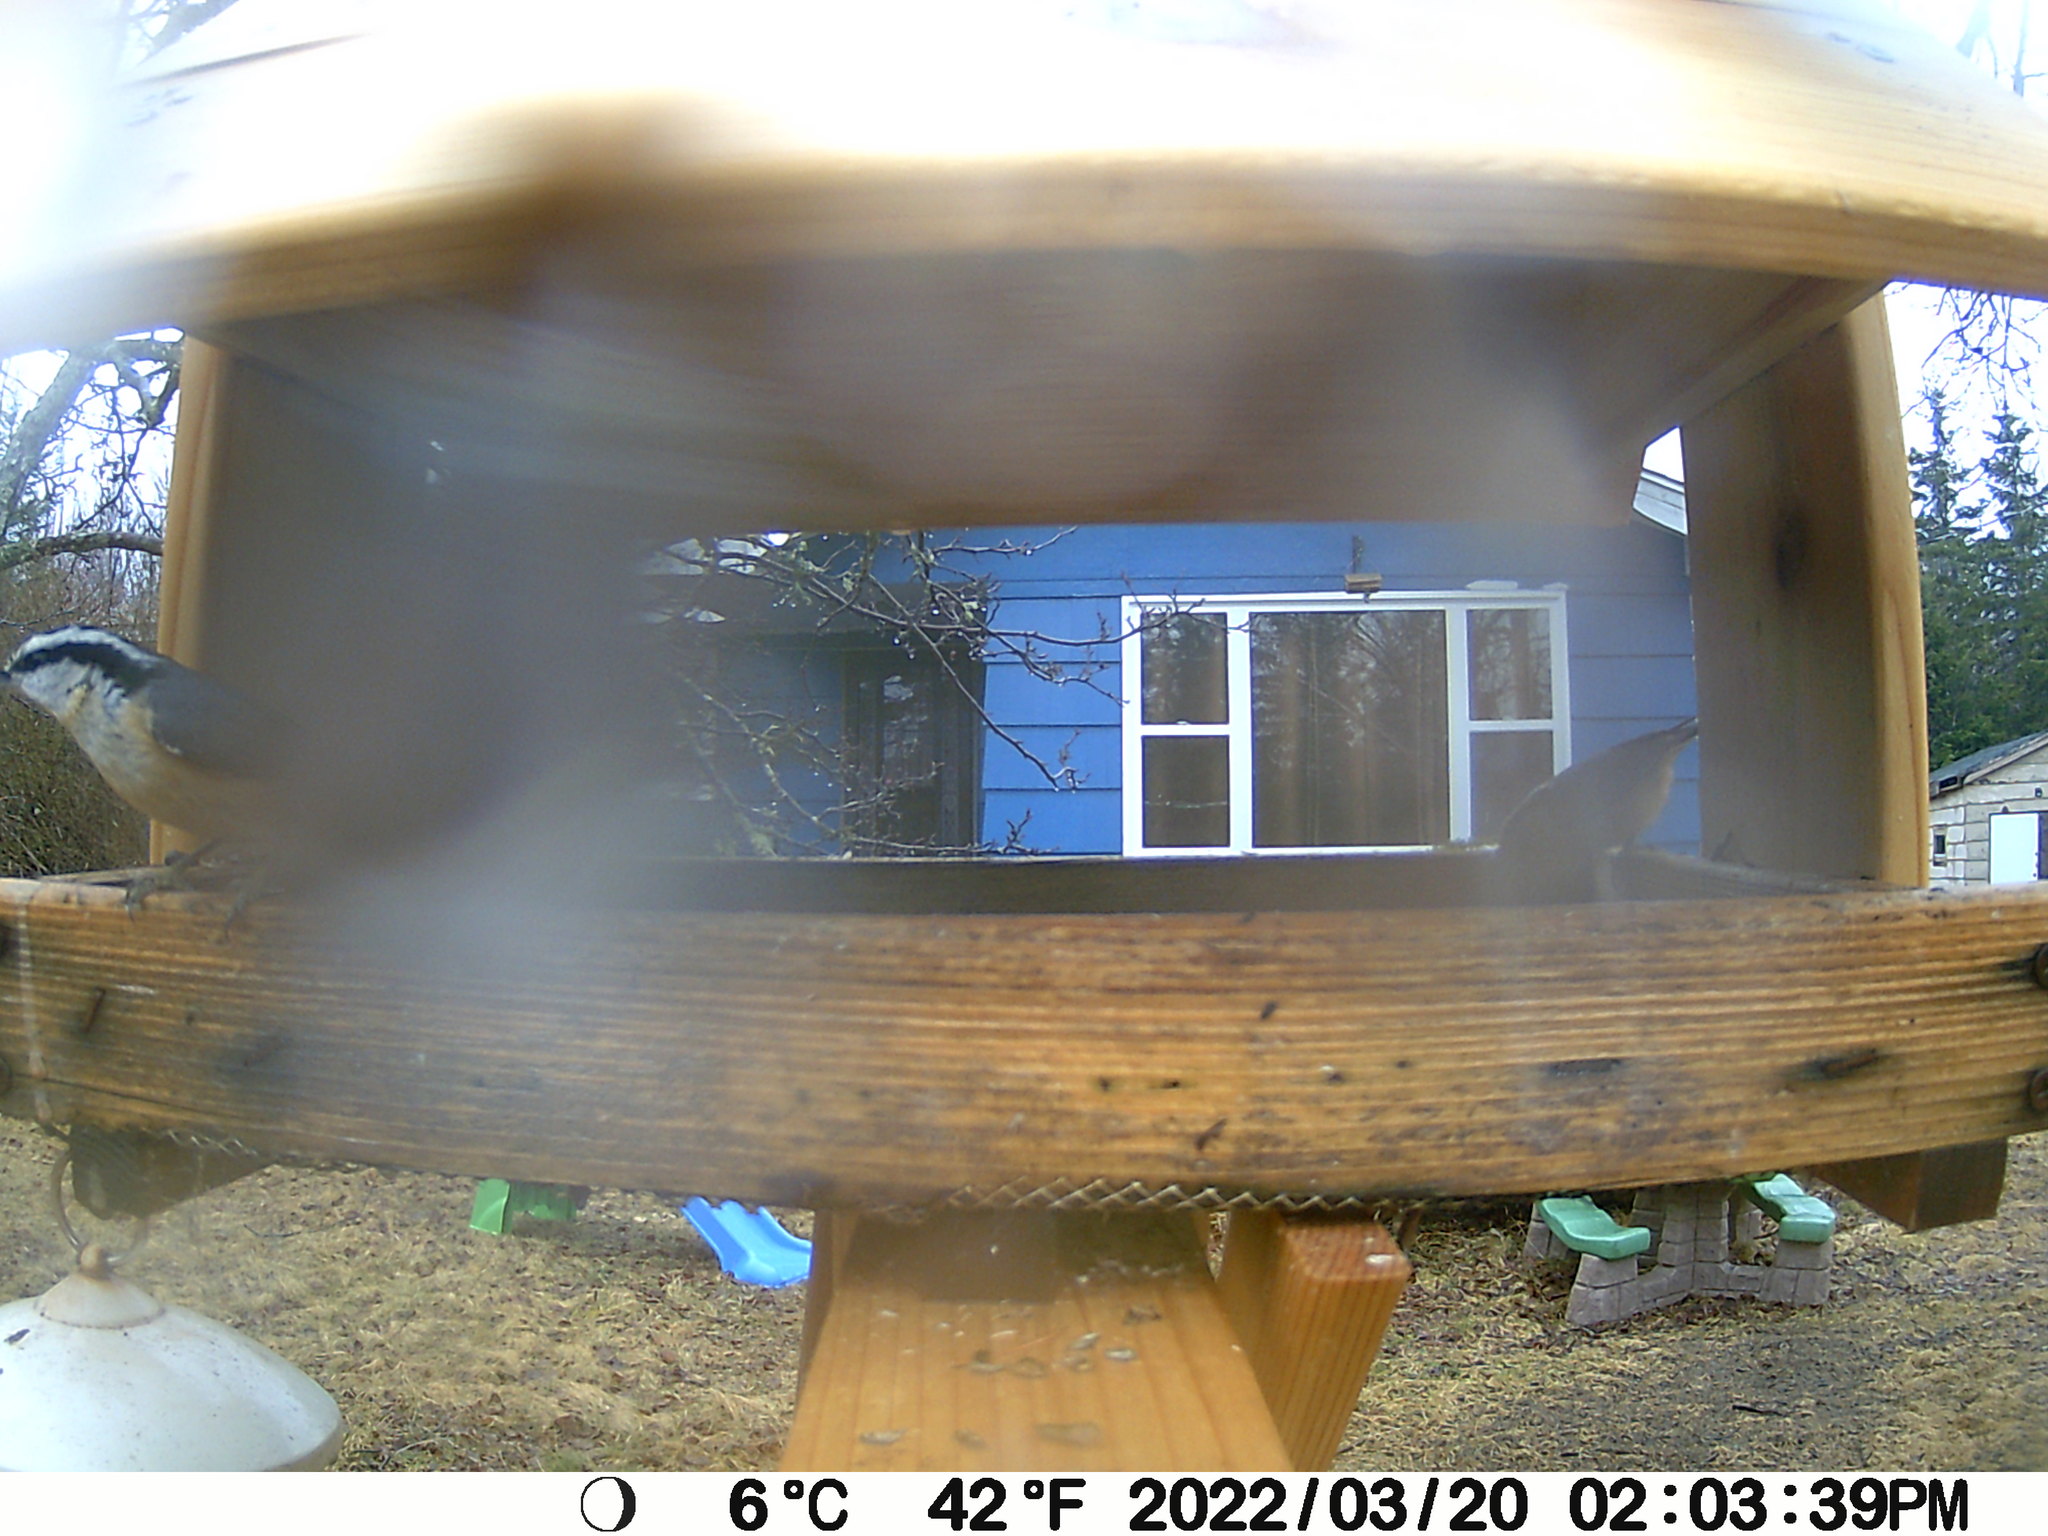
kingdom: Animalia
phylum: Chordata
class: Aves
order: Passeriformes
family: Sittidae
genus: Sitta
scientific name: Sitta canadensis
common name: Red-breasted nuthatch
